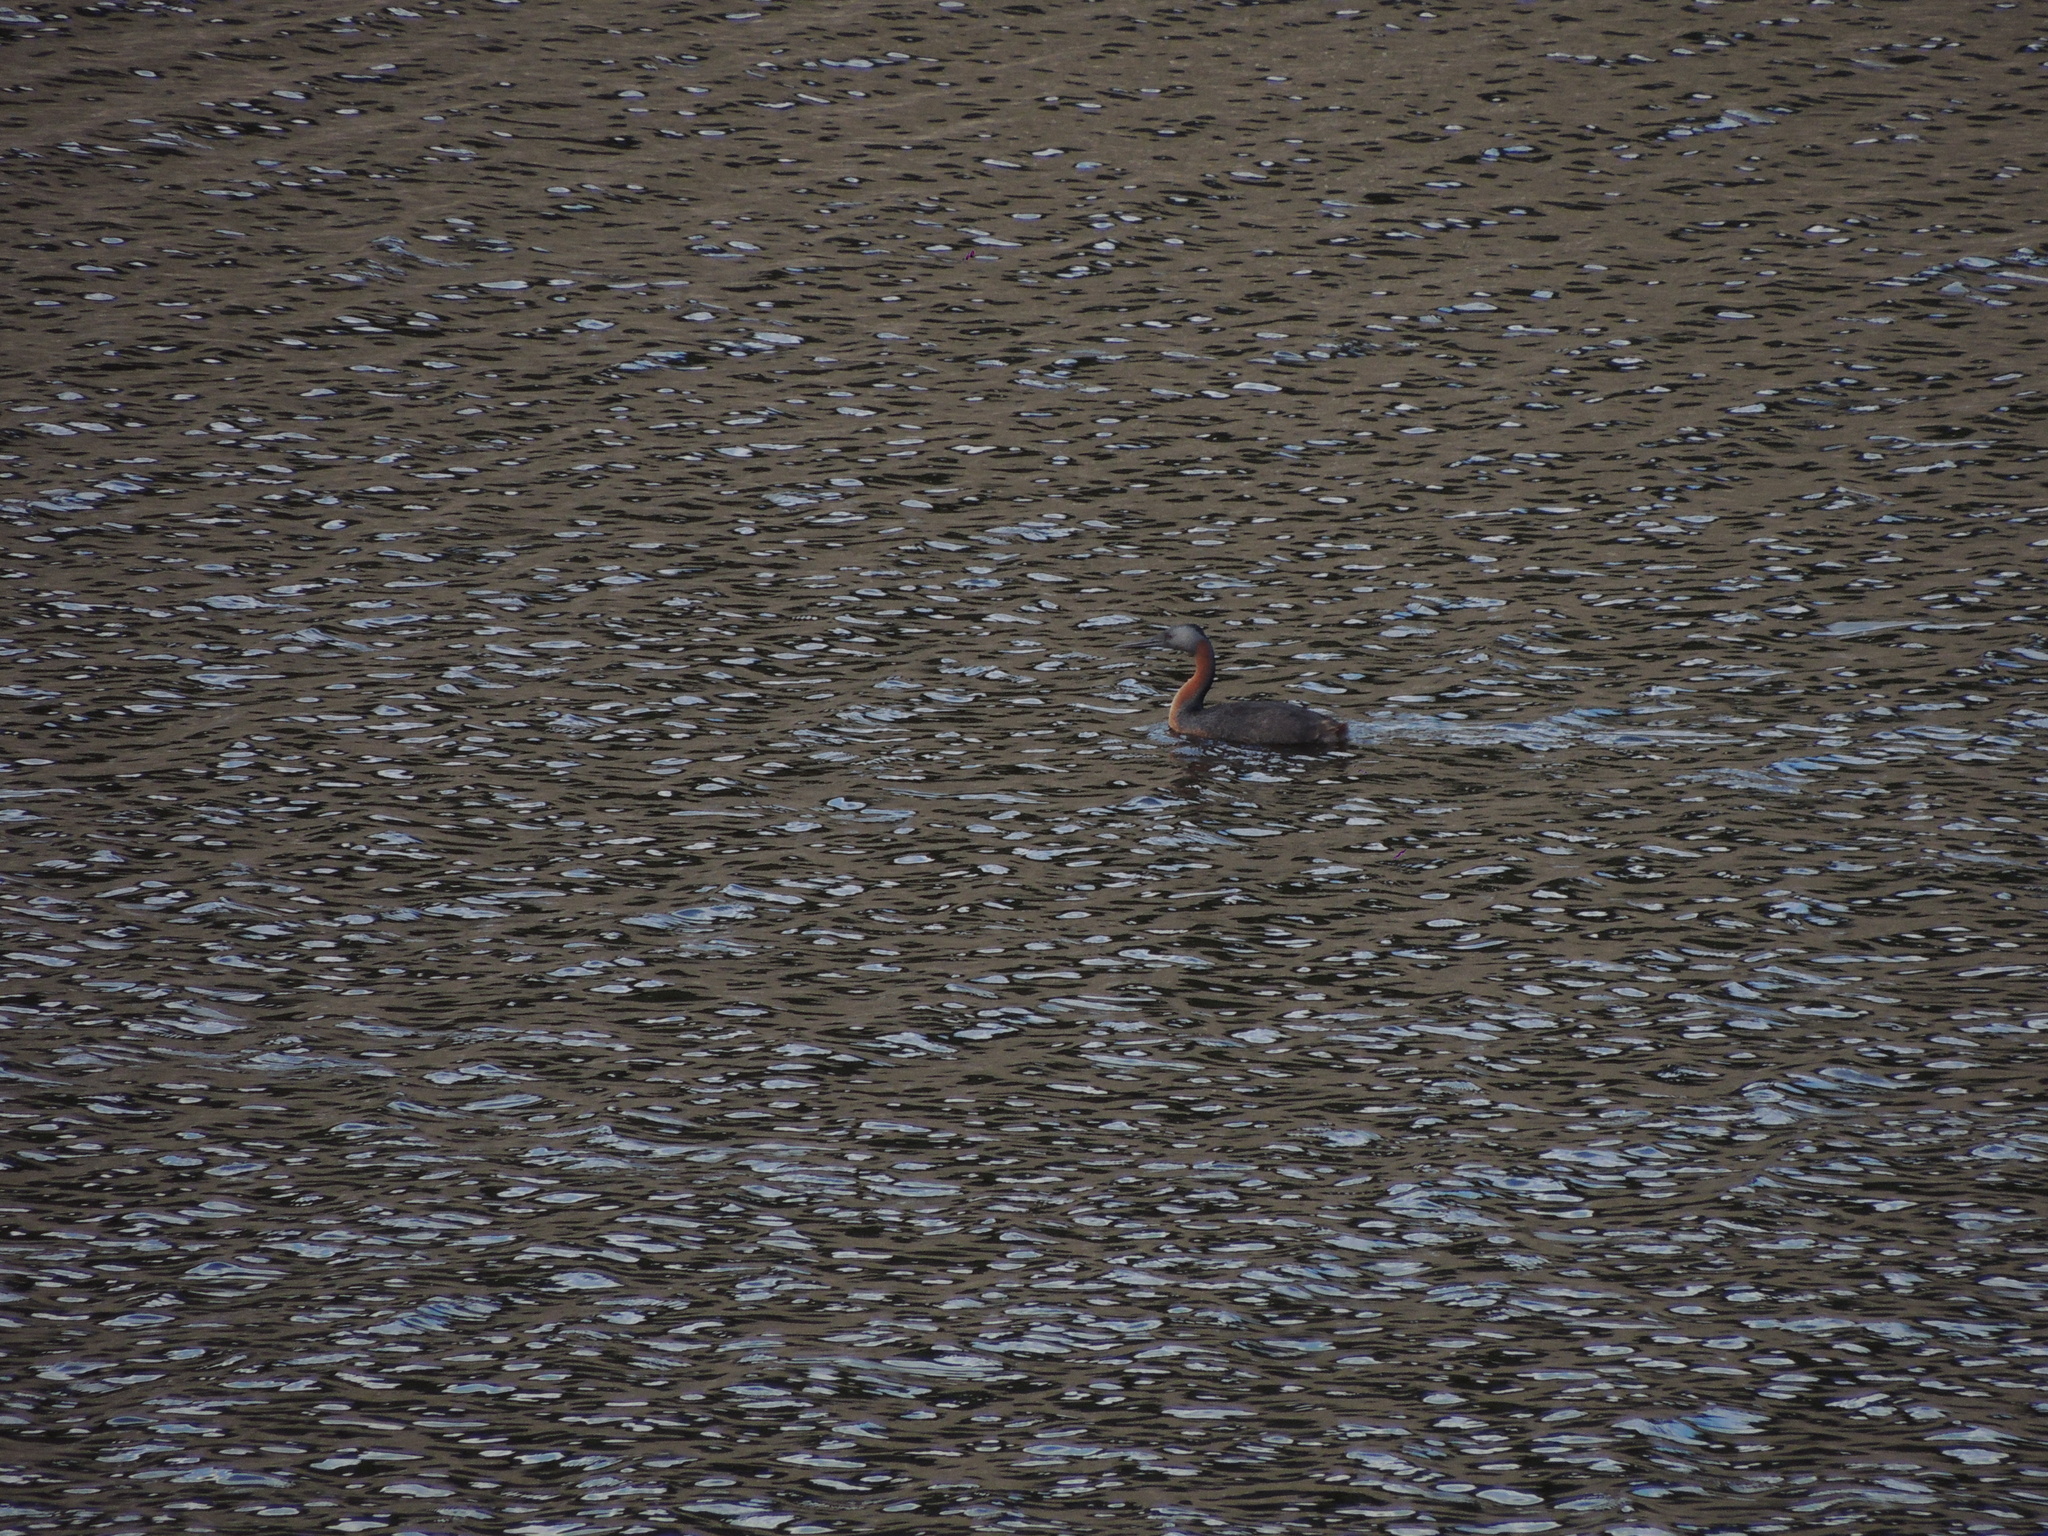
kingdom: Animalia
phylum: Chordata
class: Aves
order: Podicipediformes
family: Podicipedidae
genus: Podiceps
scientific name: Podiceps major
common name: Great grebe
